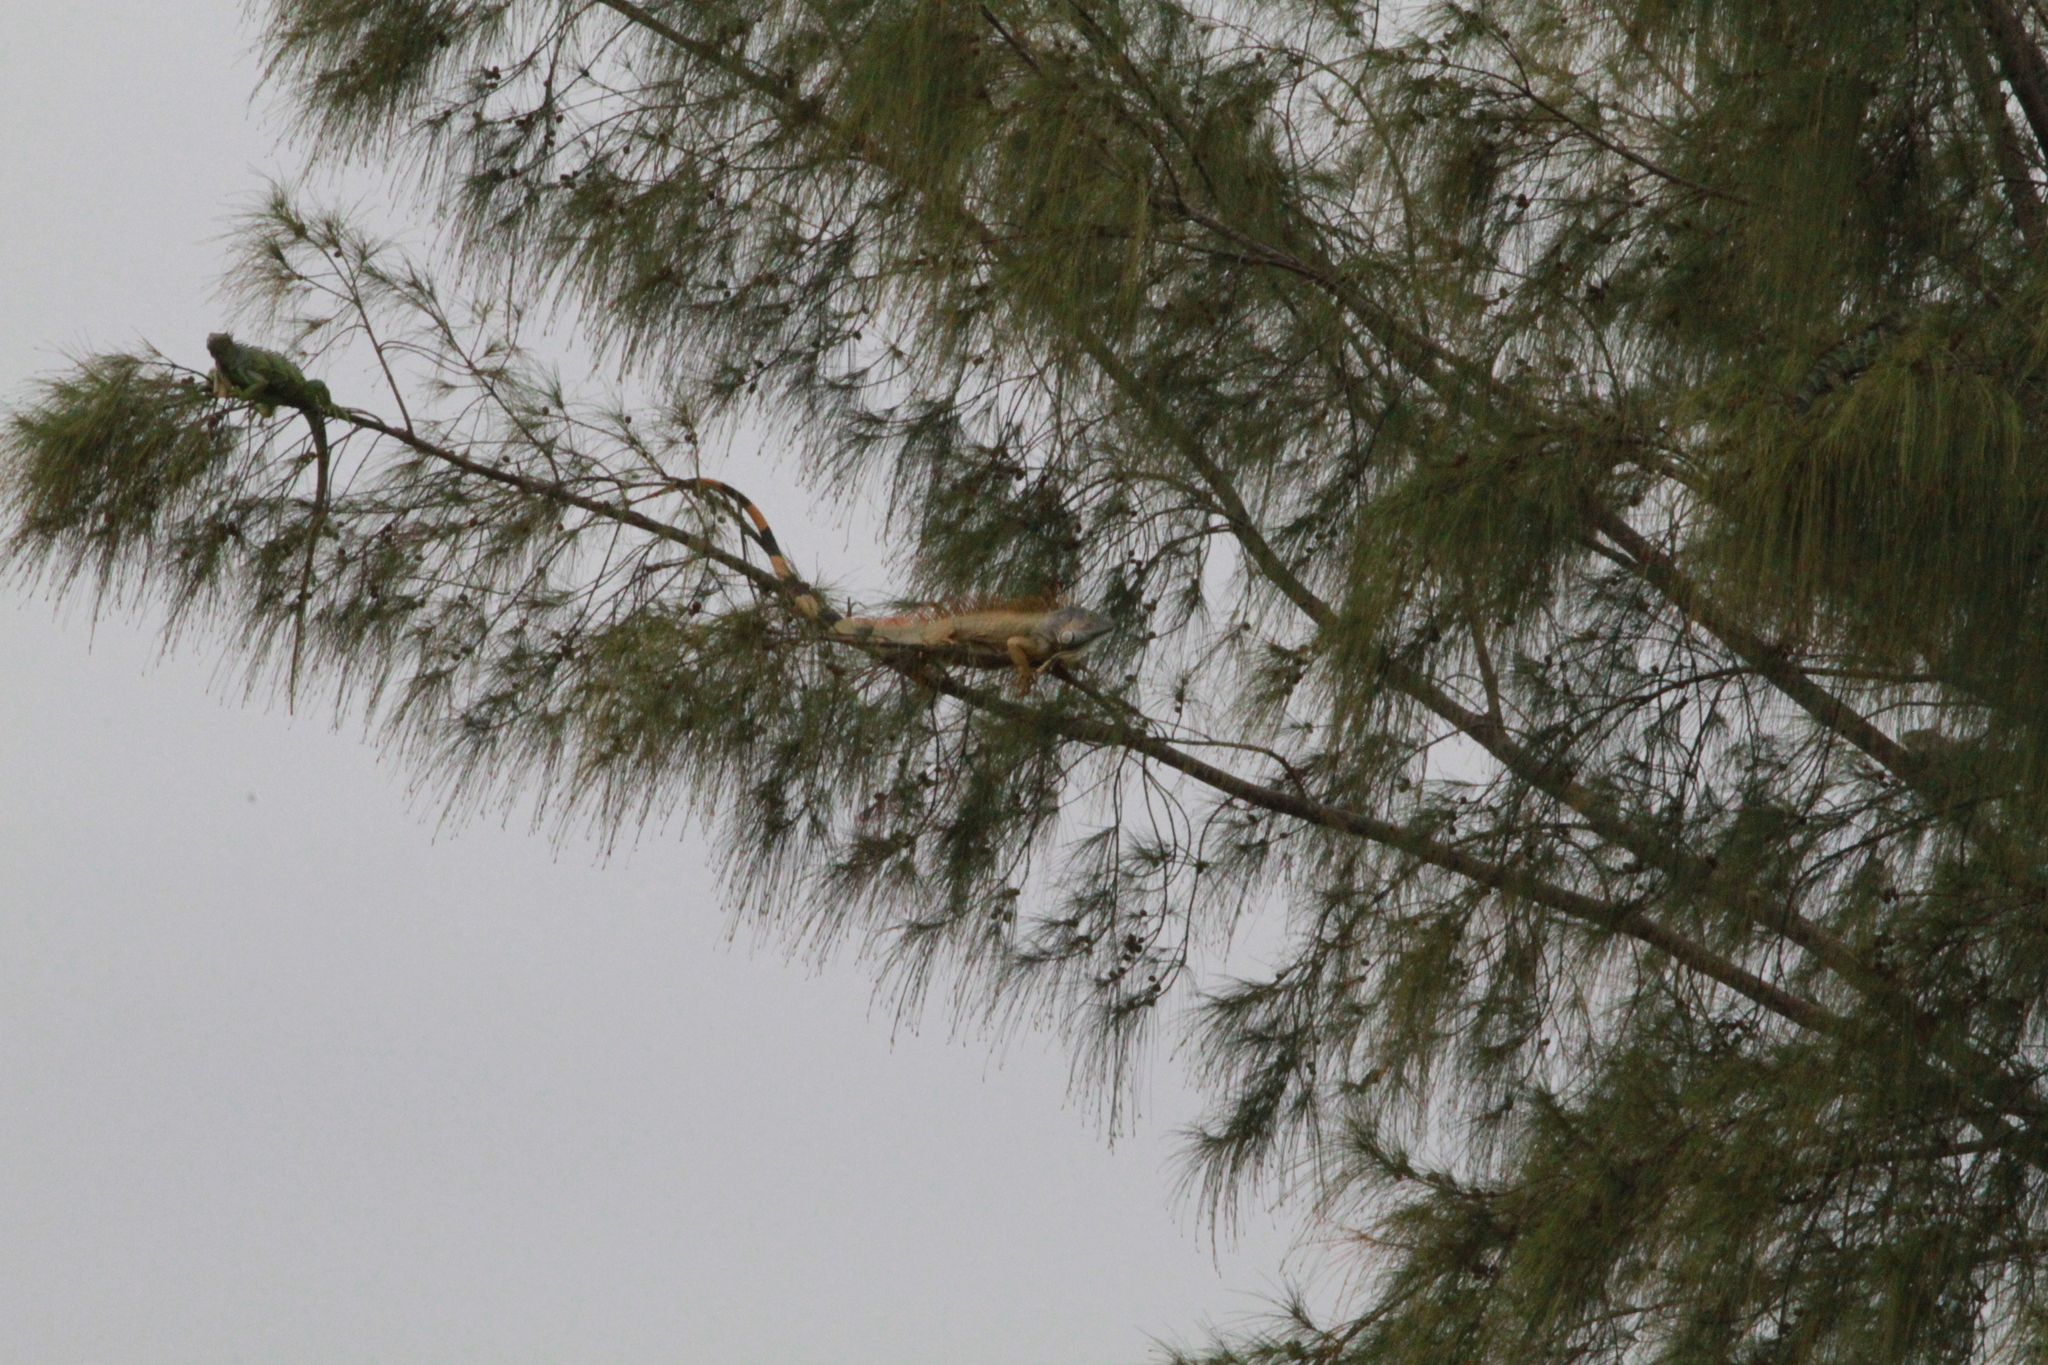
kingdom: Animalia
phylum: Chordata
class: Squamata
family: Iguanidae
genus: Iguana
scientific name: Iguana iguana
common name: Green iguana
